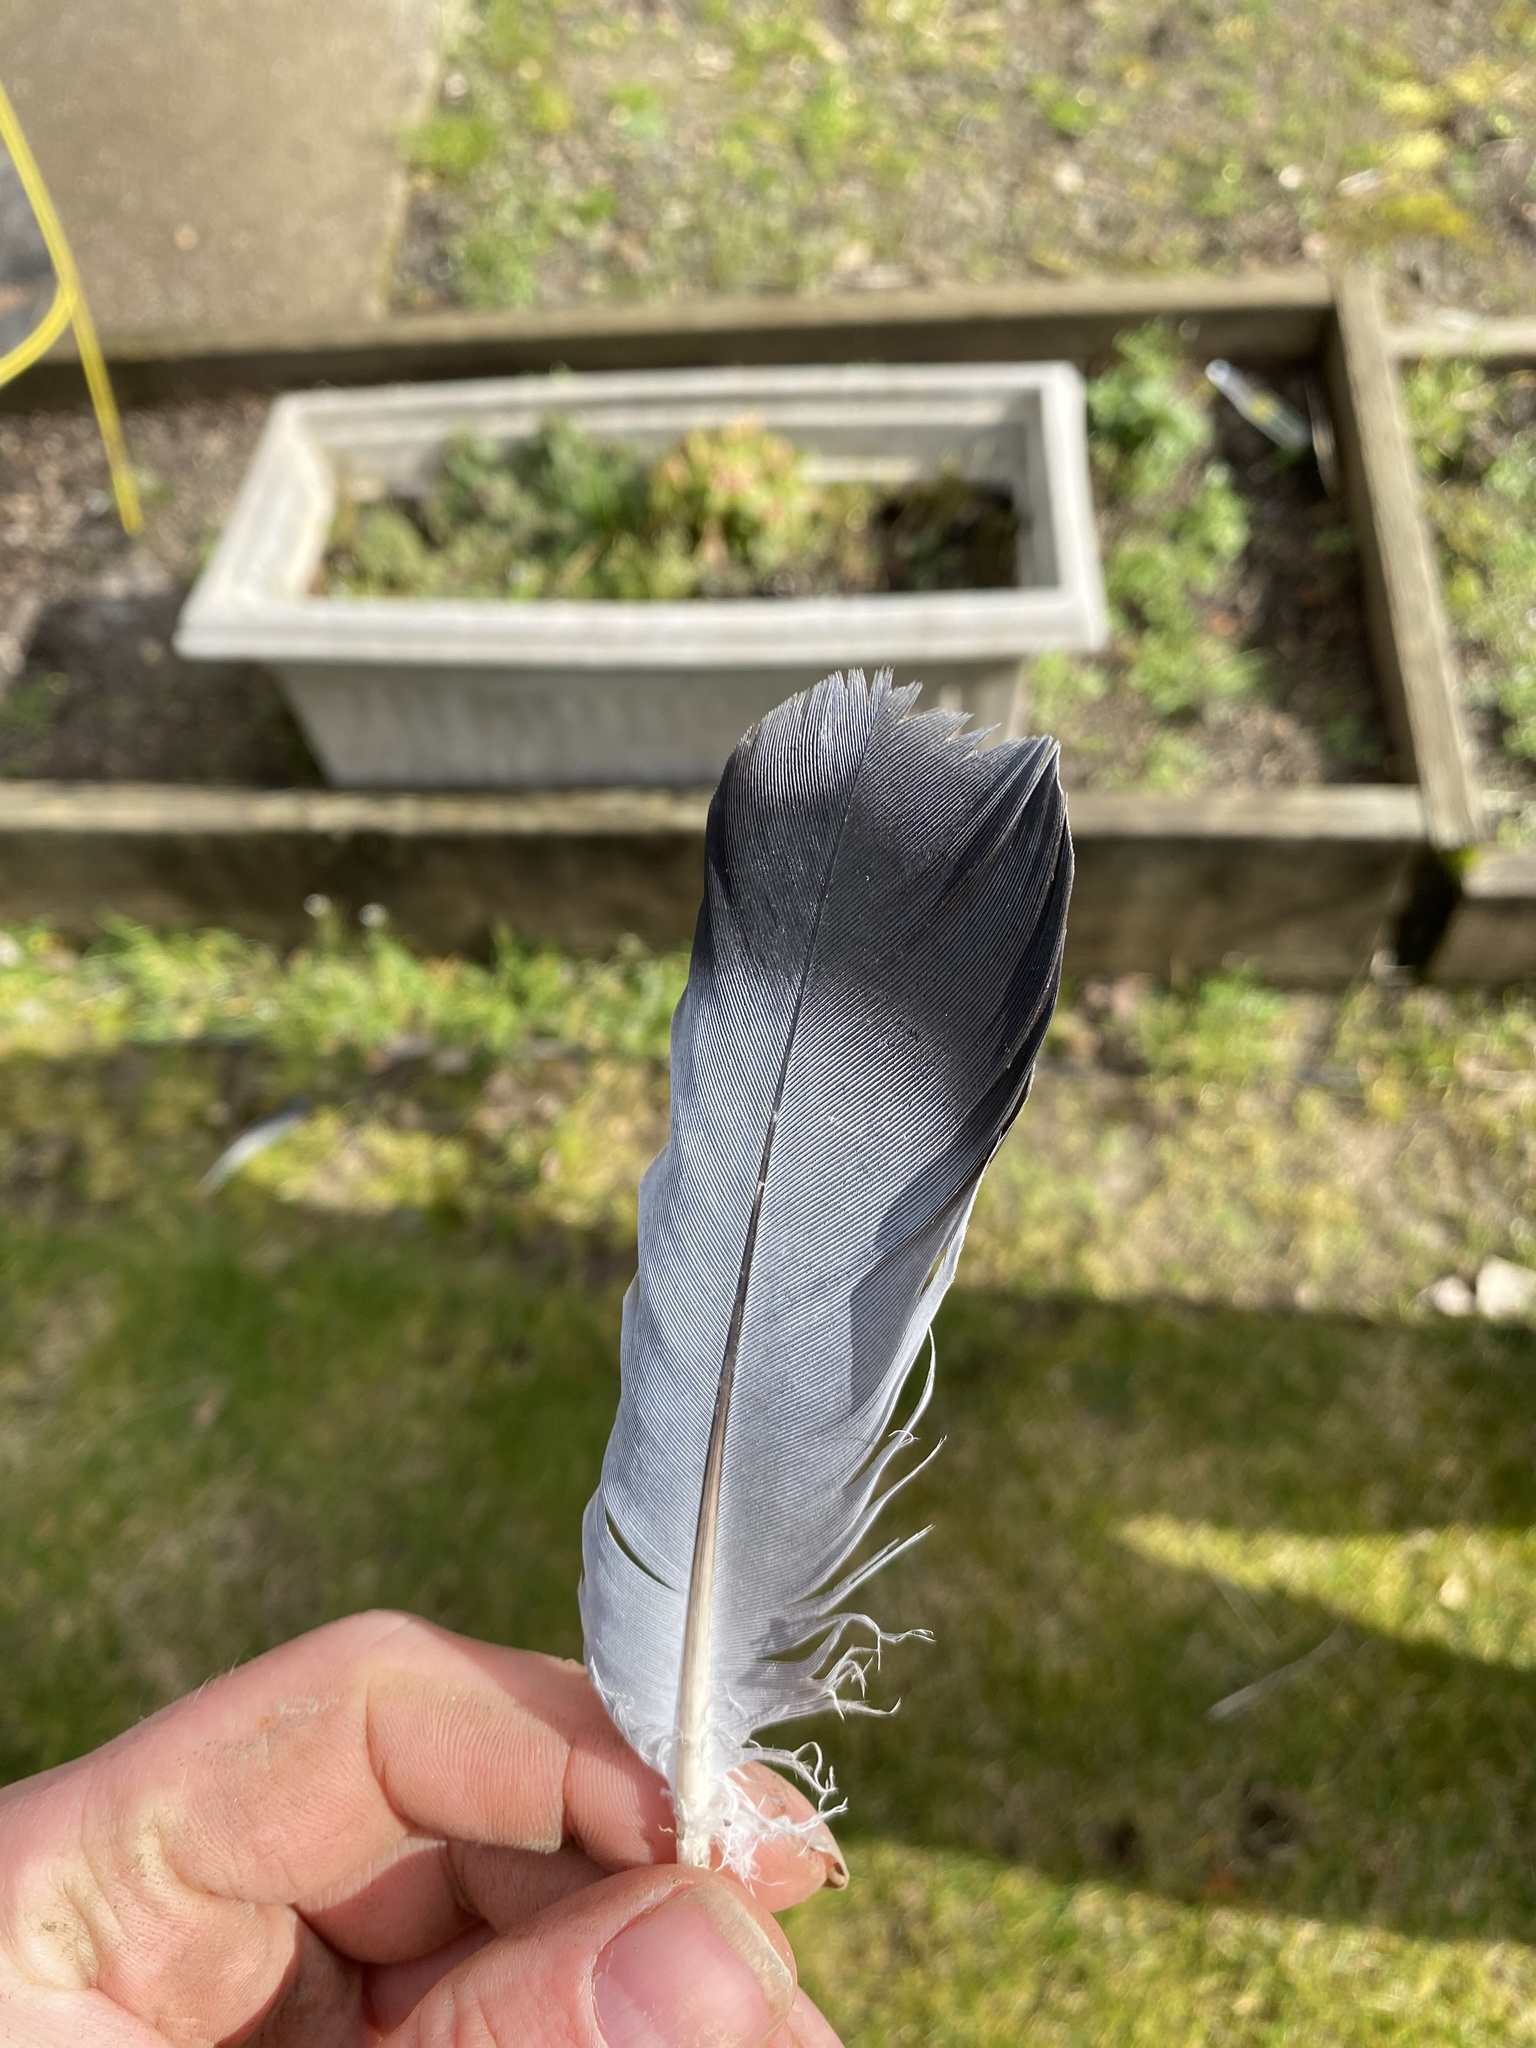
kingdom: Animalia
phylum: Chordata
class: Aves
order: Columbiformes
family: Columbidae
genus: Columba
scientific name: Columba livia
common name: Rock pigeon
